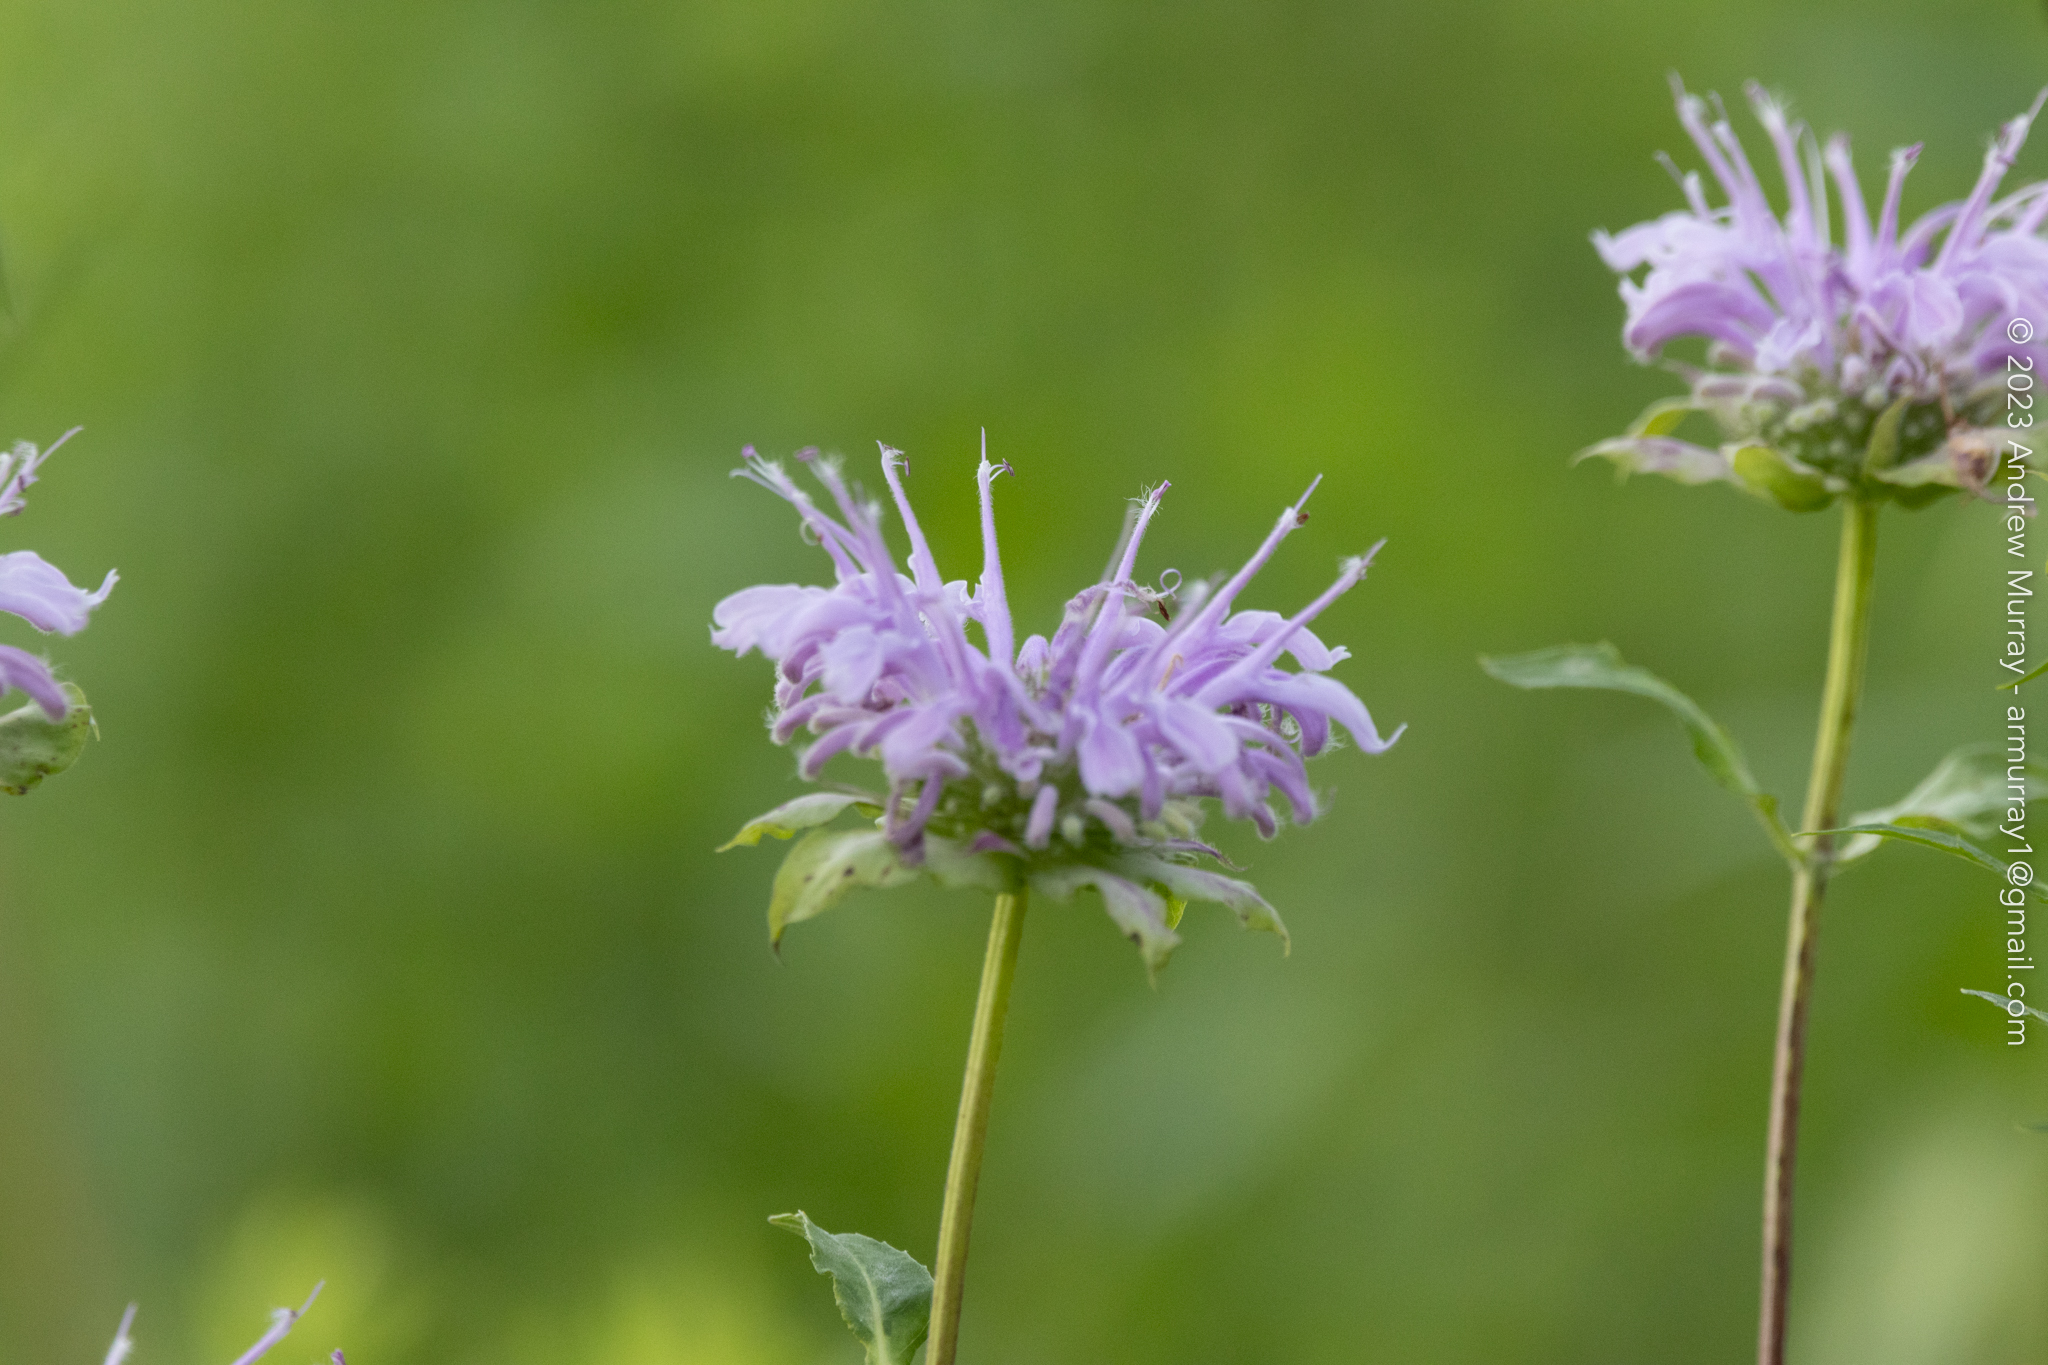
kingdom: Plantae
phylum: Tracheophyta
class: Magnoliopsida
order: Lamiales
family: Lamiaceae
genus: Monarda
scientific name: Monarda fistulosa
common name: Purple beebalm
